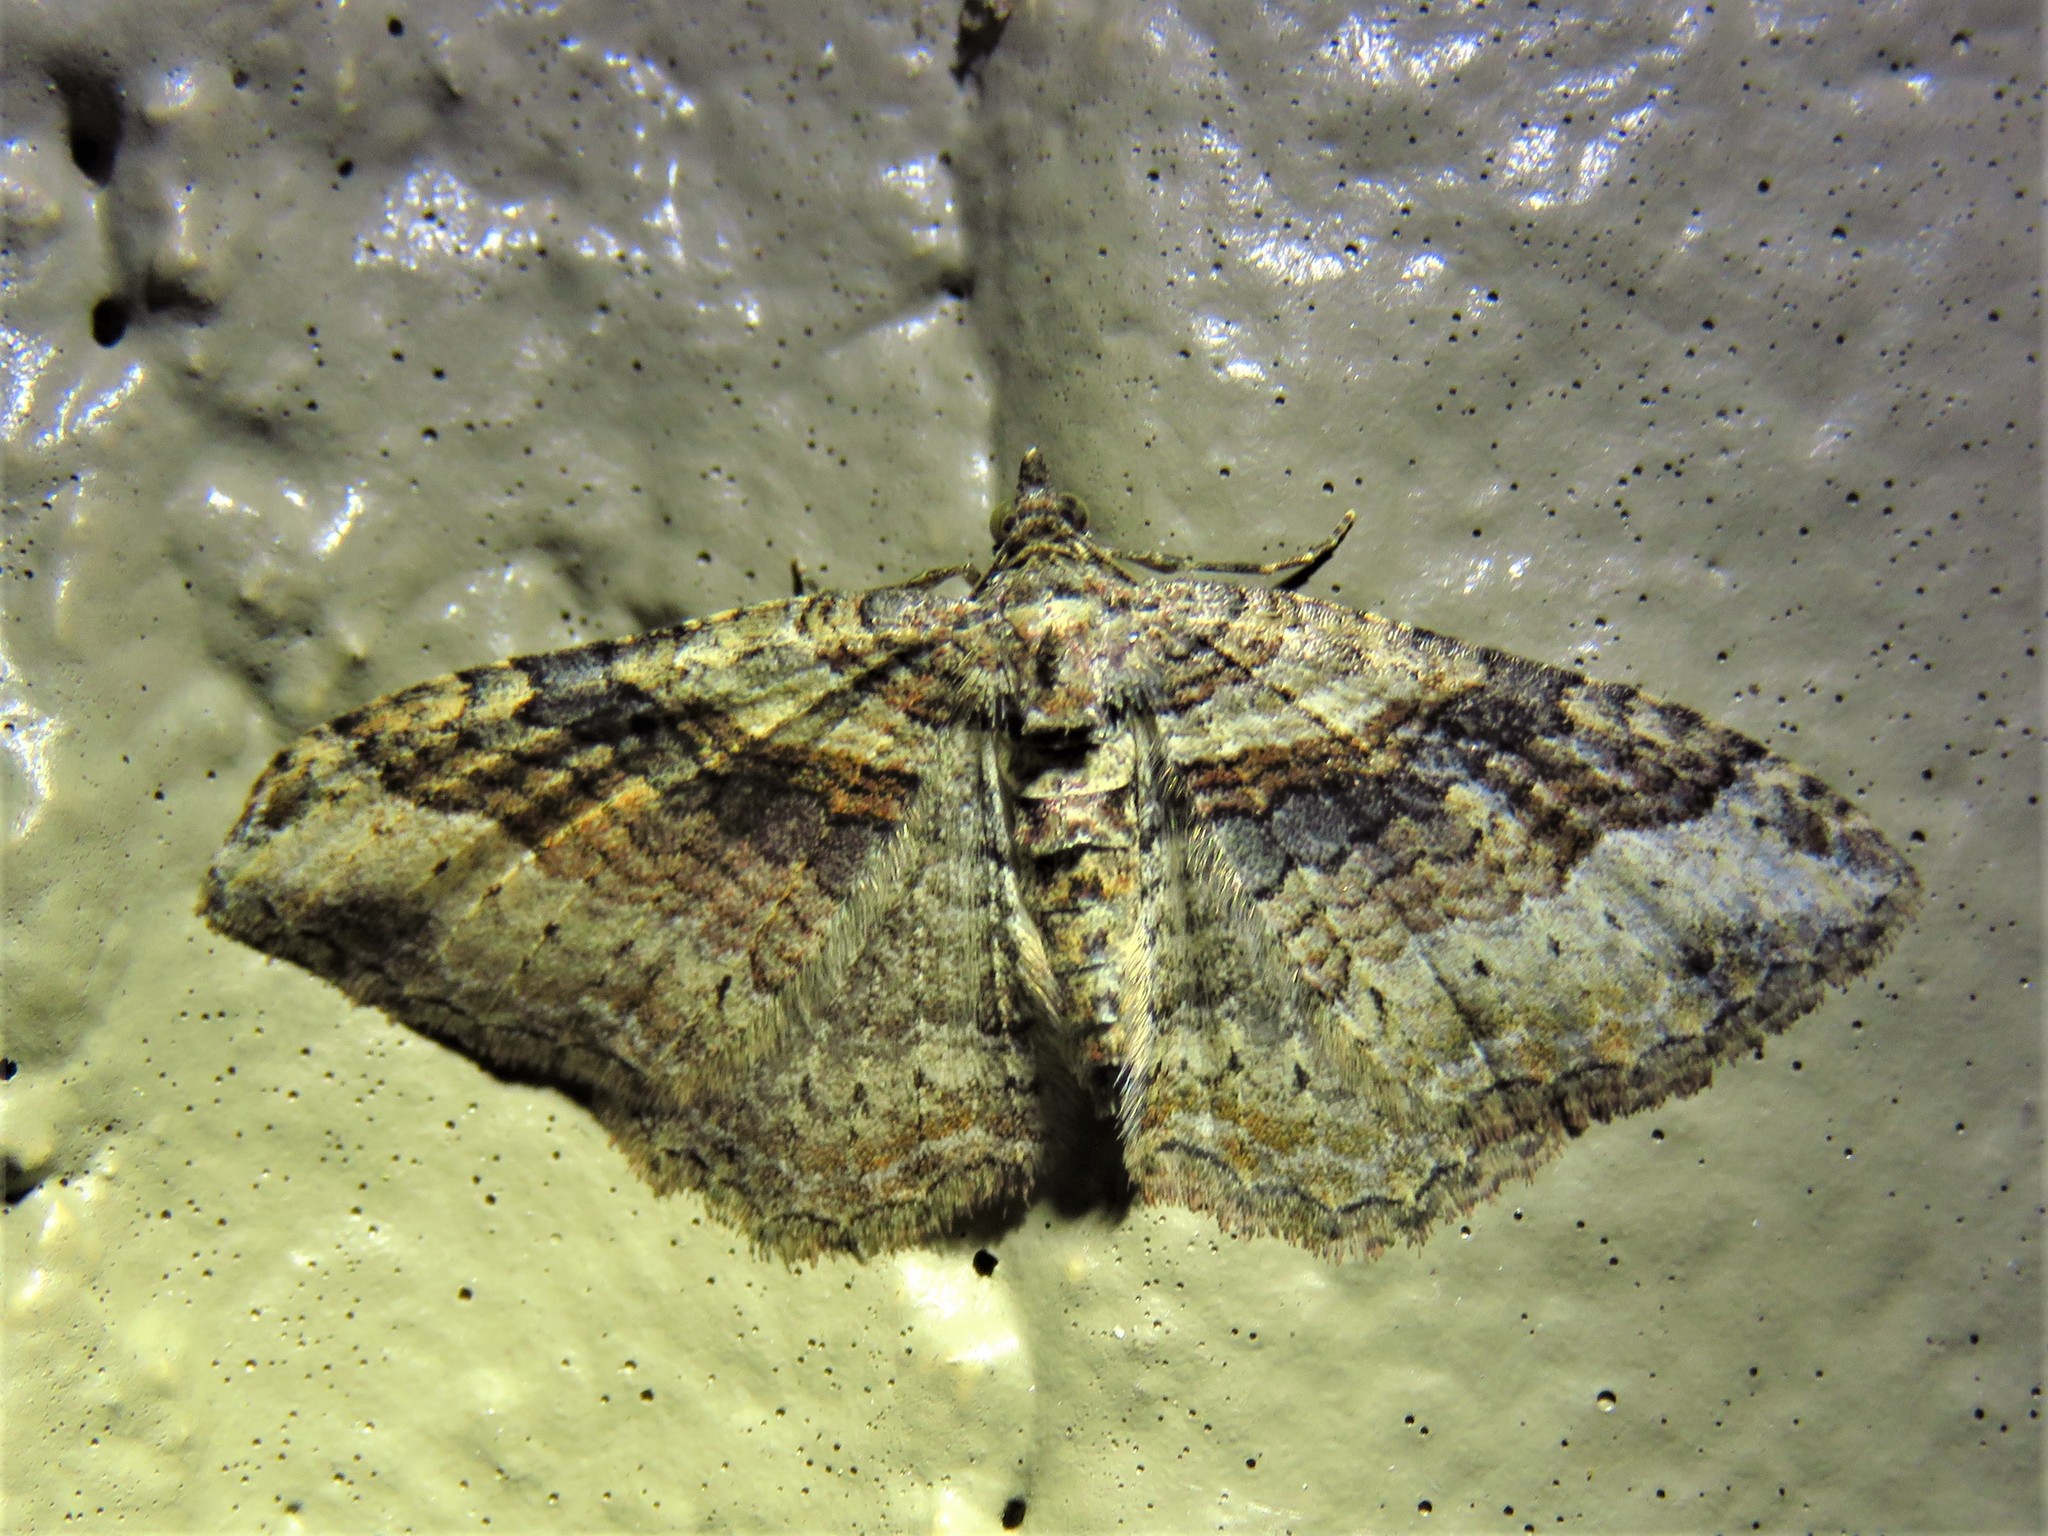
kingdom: Animalia
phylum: Arthropoda
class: Insecta
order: Lepidoptera
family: Geometridae
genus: Costaconvexa
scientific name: Costaconvexa centrostrigaria
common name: Bent-line carpet
